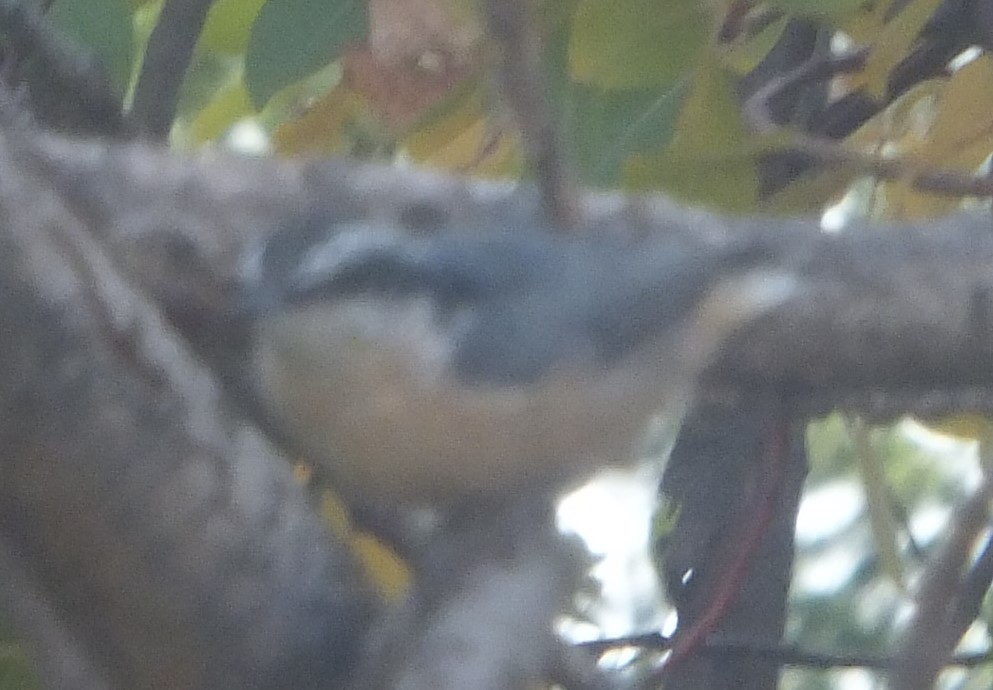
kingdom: Animalia
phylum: Chordata
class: Aves
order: Passeriformes
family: Sittidae
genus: Sitta
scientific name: Sitta canadensis
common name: Red-breasted nuthatch
